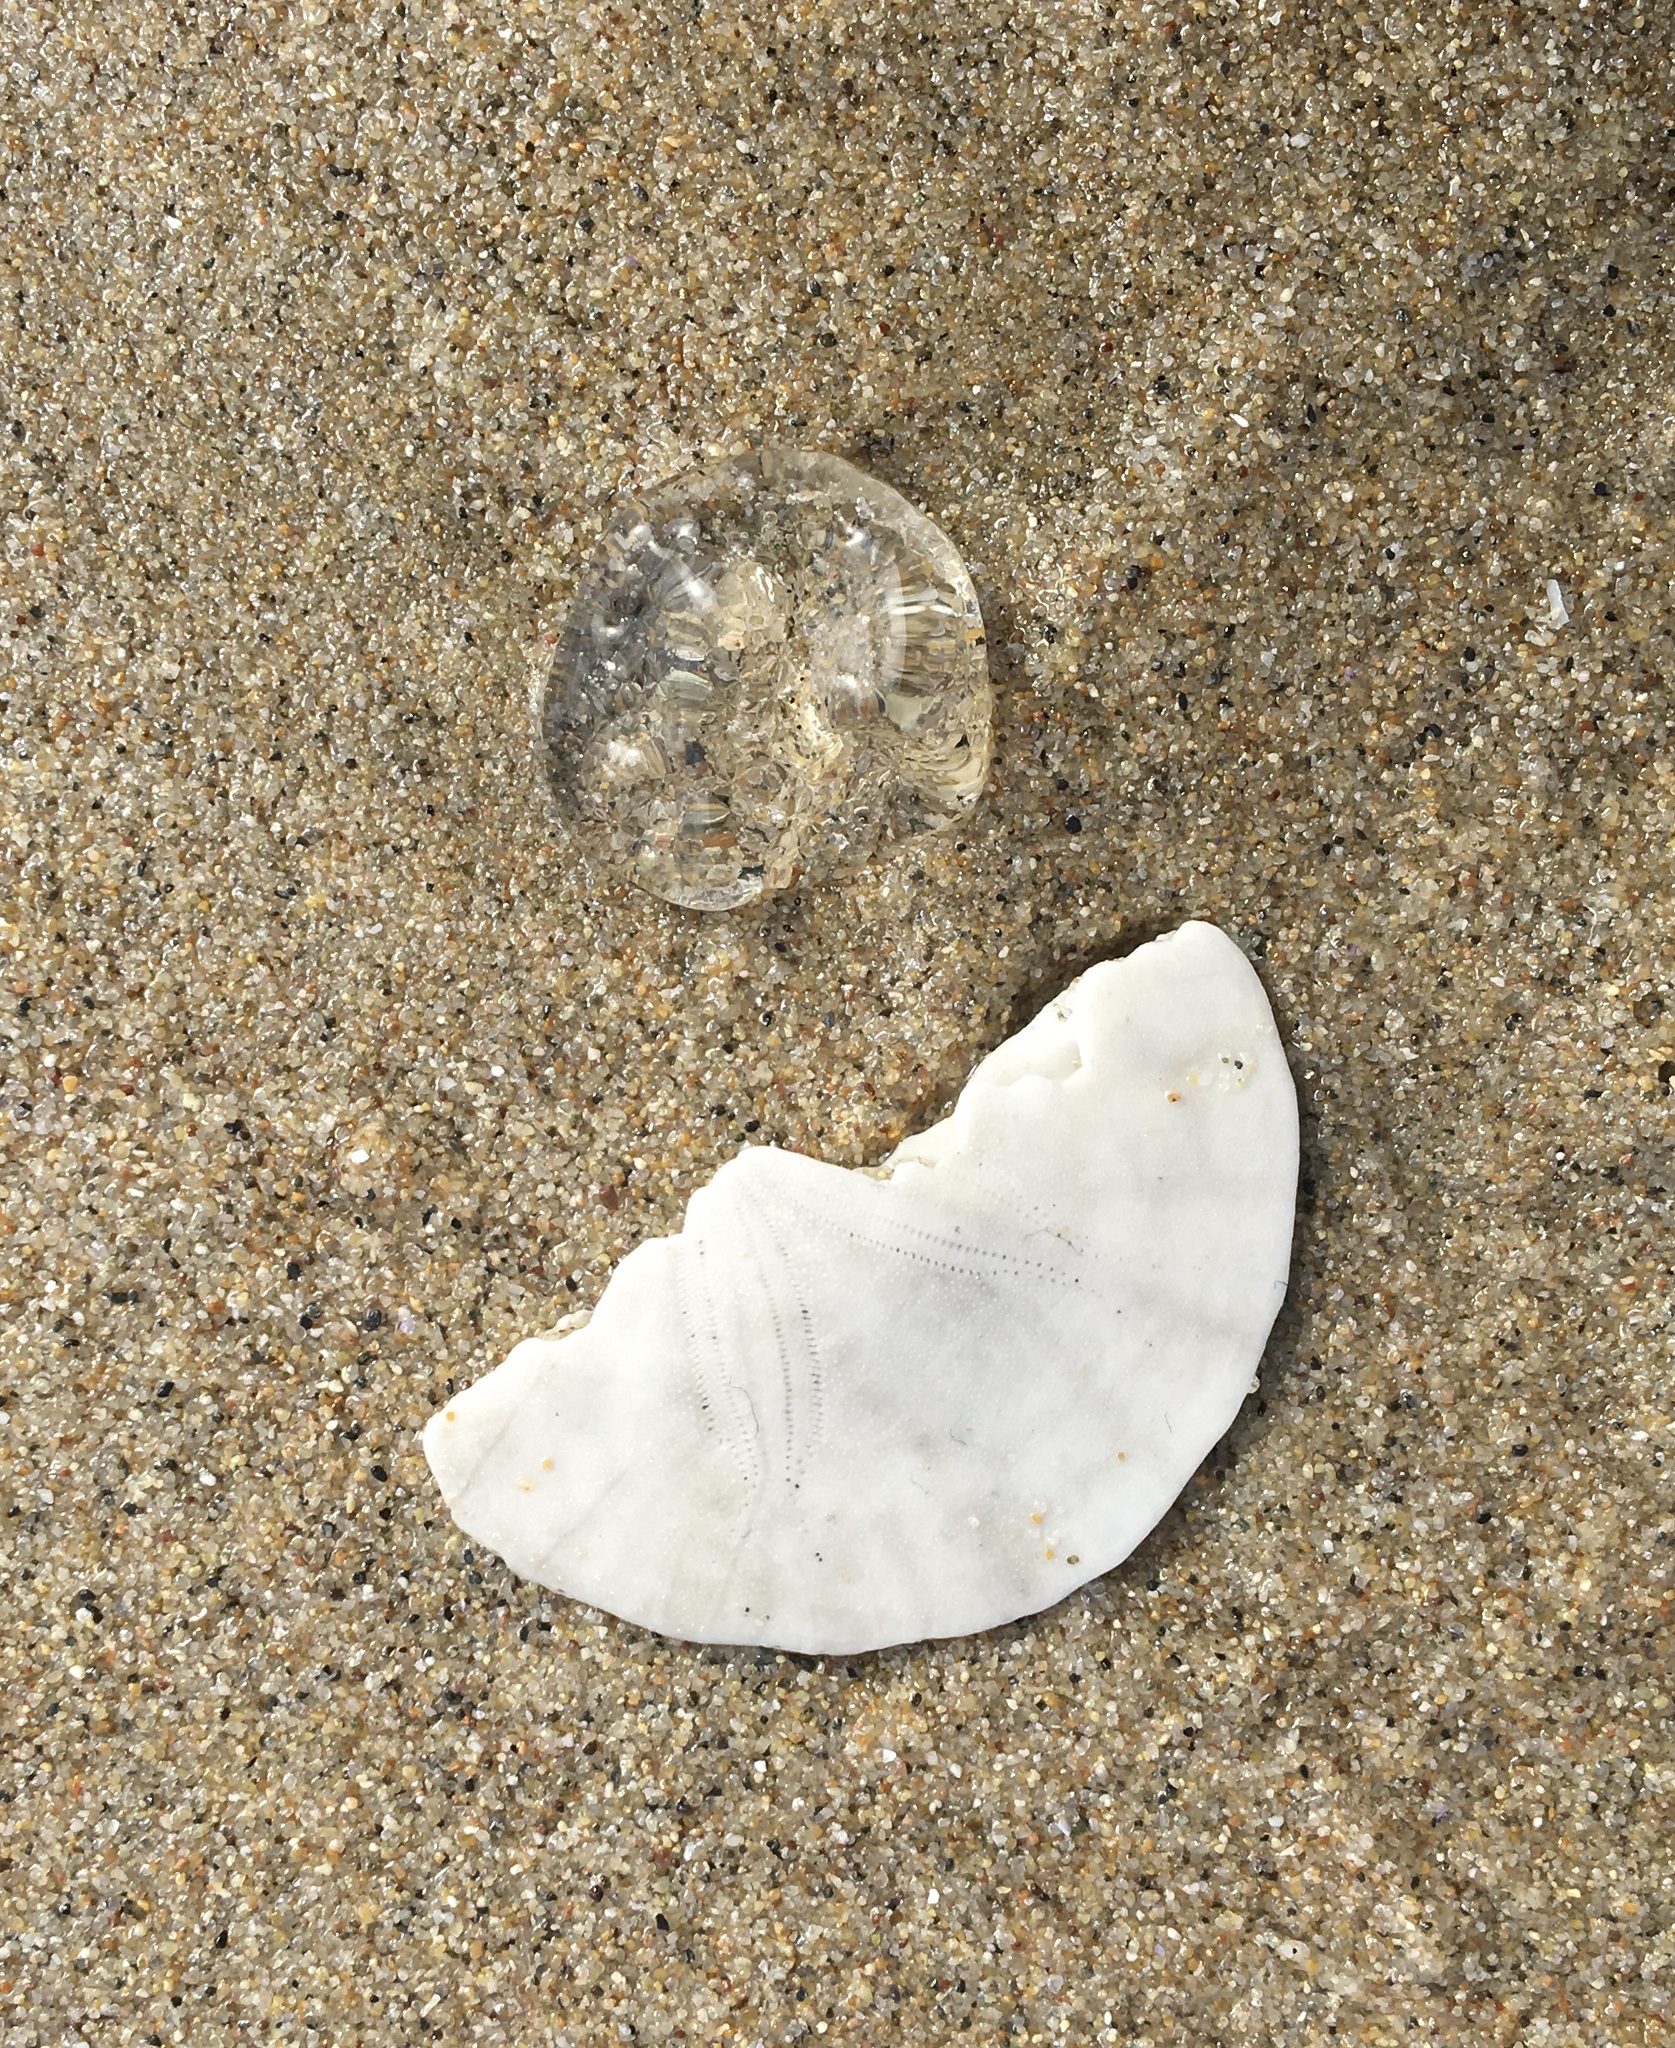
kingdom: Animalia
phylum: Echinodermata
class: Echinoidea
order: Echinolampadacea
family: Dendrasteridae
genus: Dendraster
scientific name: Dendraster excentricus
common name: Eccentric sand dollar sea urchin
